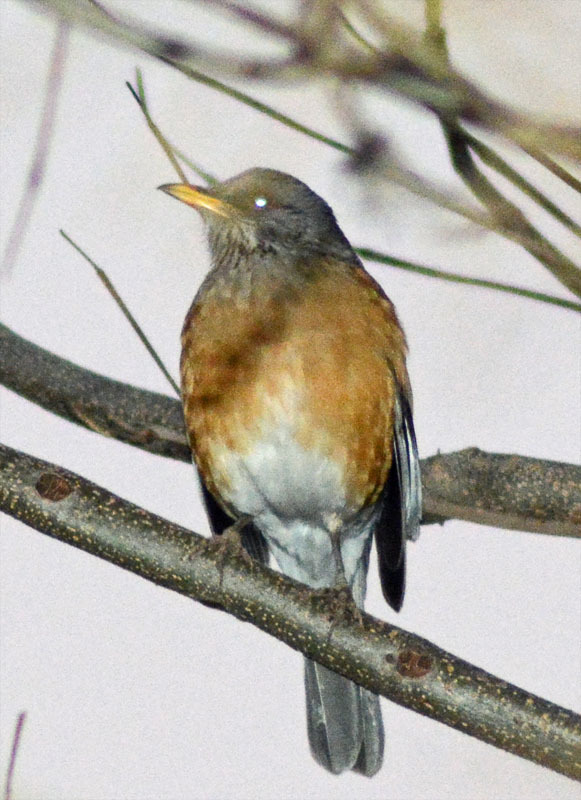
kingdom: Animalia
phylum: Chordata
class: Aves
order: Passeriformes
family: Turdidae
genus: Turdus
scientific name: Turdus rufopalliatus
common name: Rufous-backed robin
